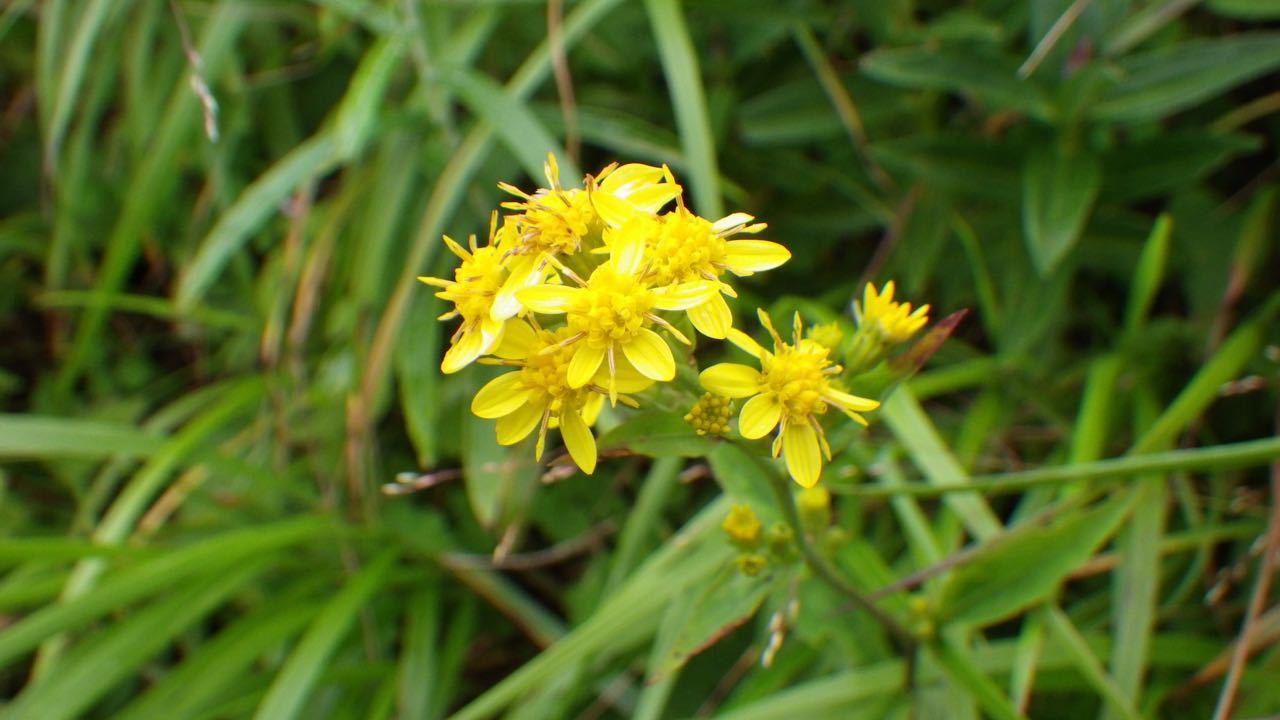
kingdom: Plantae
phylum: Tracheophyta
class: Magnoliopsida
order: Asterales
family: Asteraceae
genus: Solidago
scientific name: Solidago decurrens
